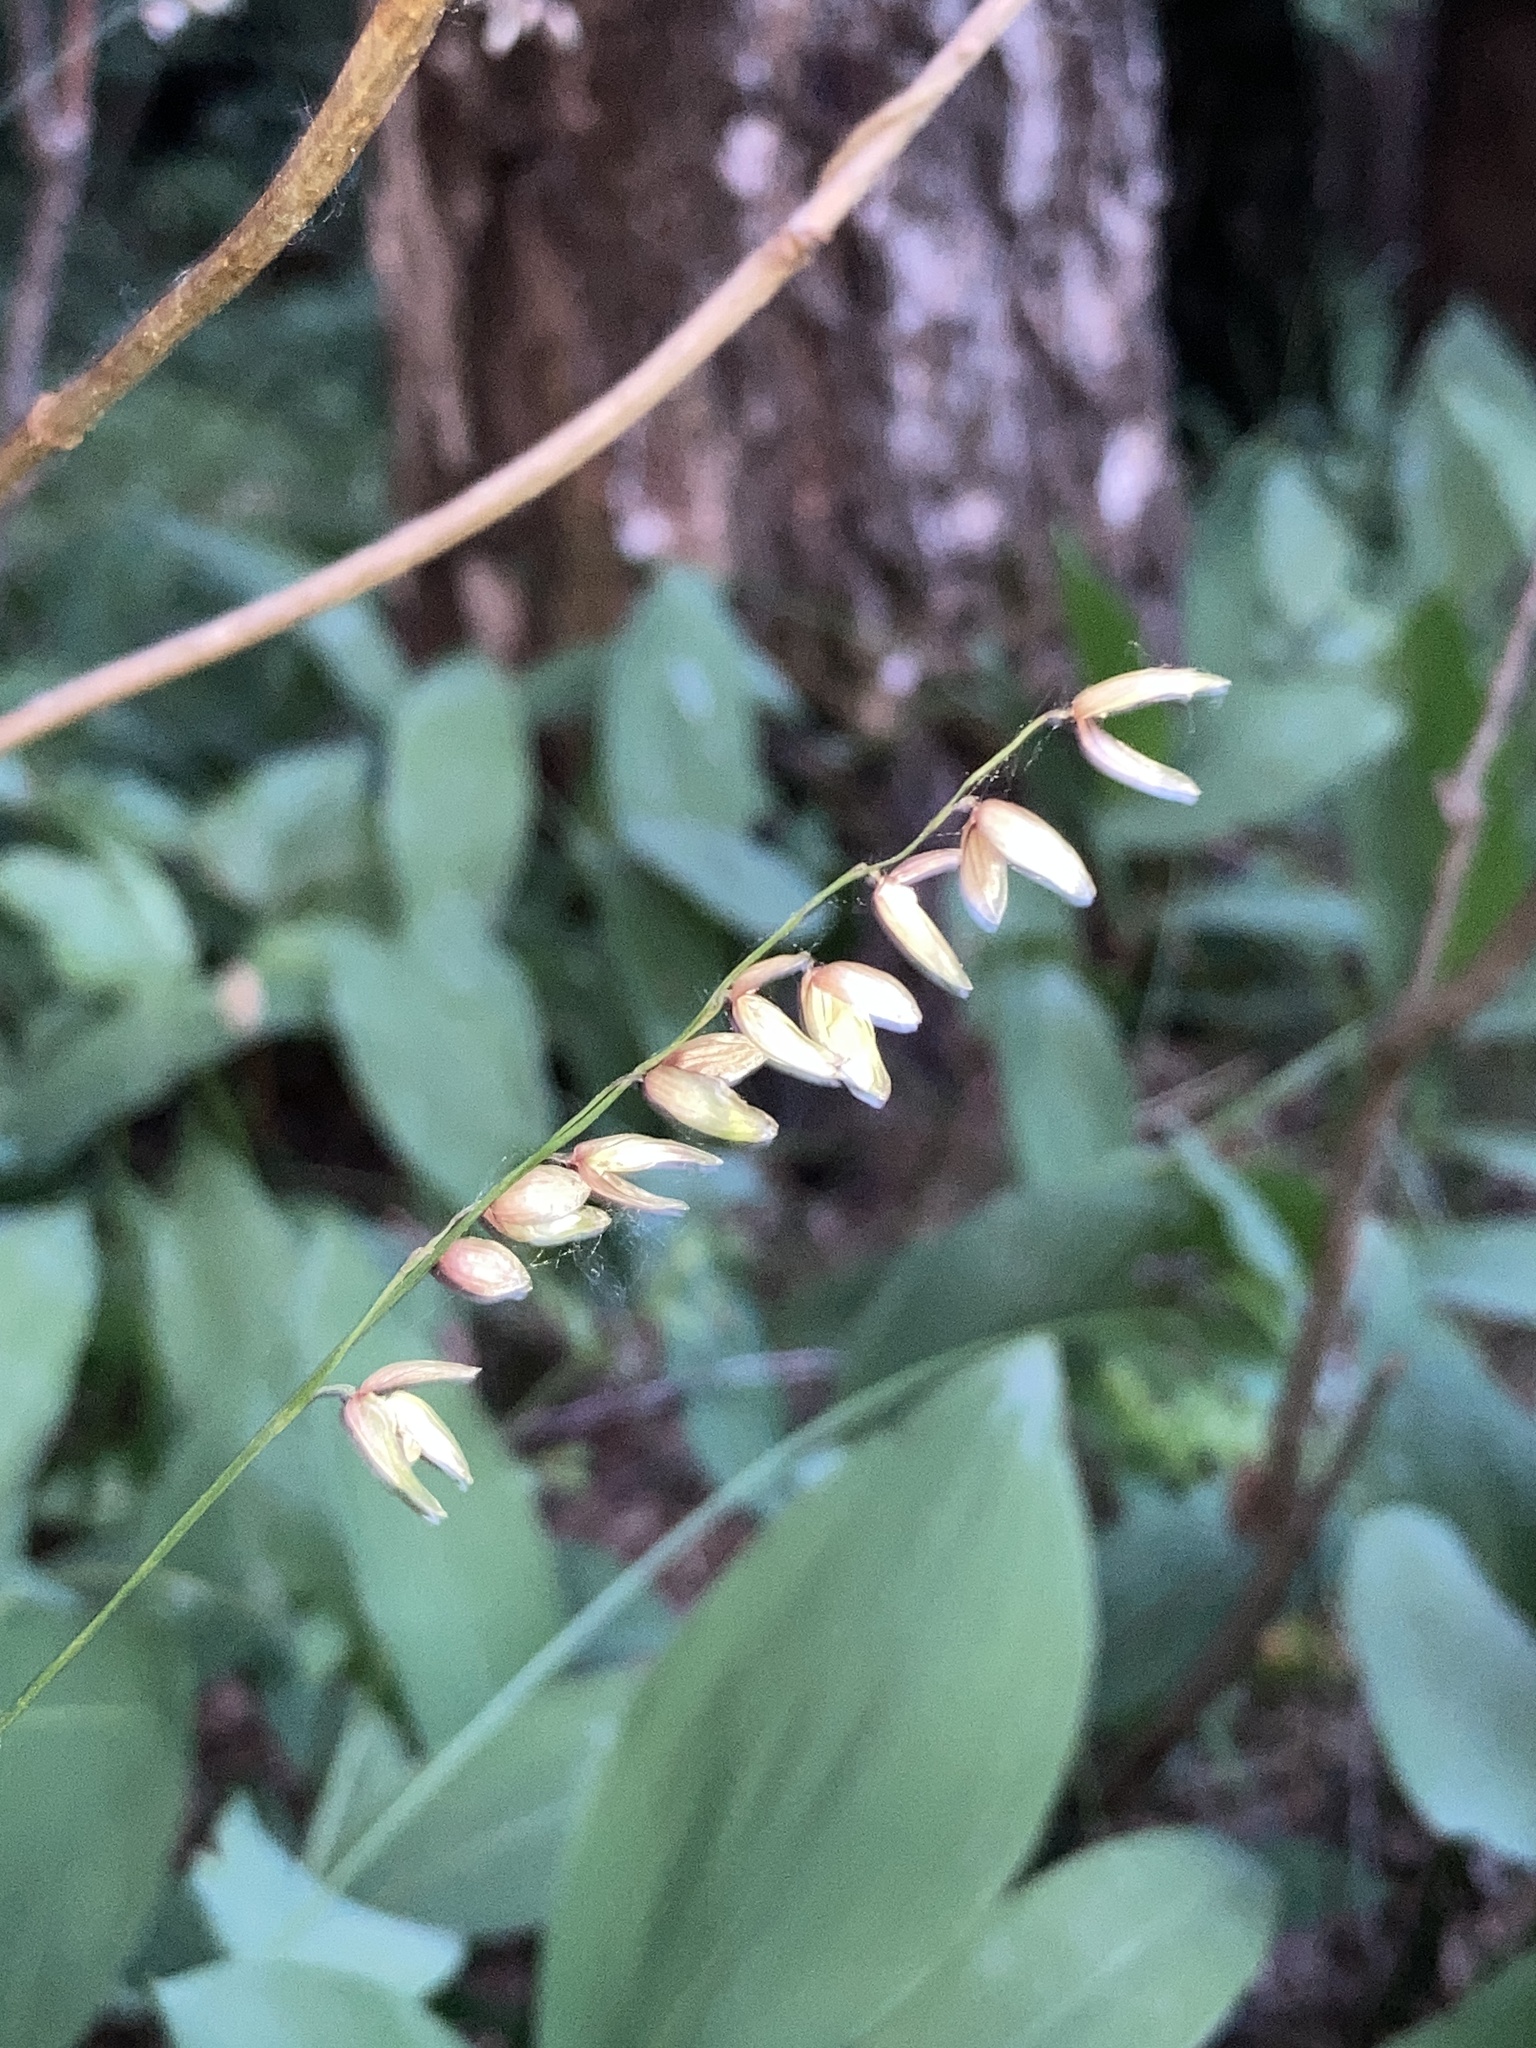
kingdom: Plantae
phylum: Tracheophyta
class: Liliopsida
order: Poales
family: Poaceae
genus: Melica
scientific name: Melica nutans
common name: Mountain melick
